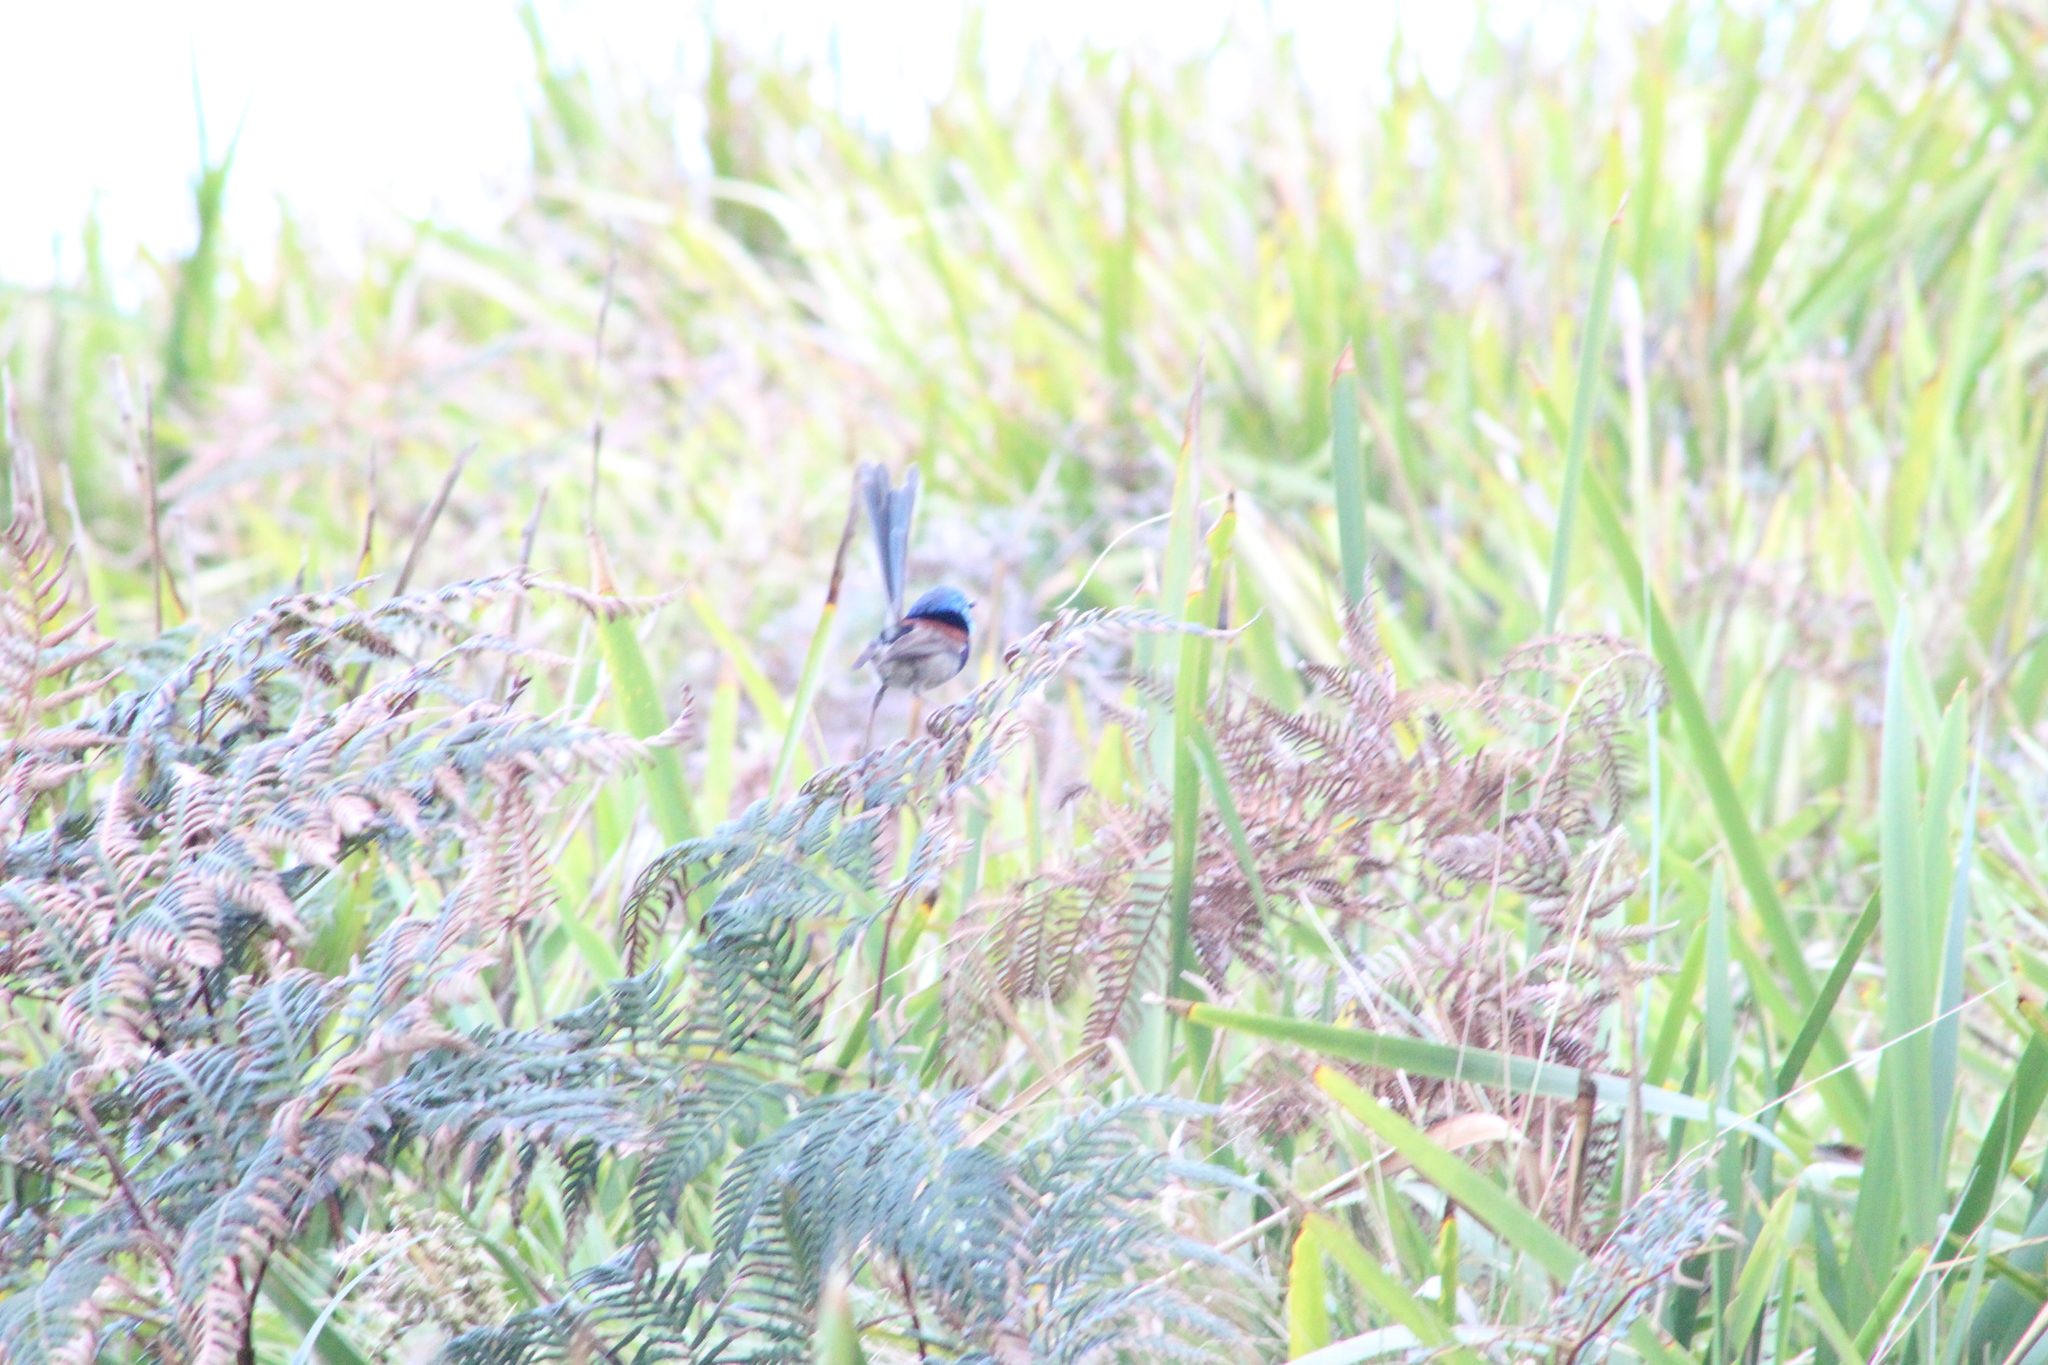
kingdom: Animalia
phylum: Chordata
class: Aves
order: Passeriformes
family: Maluridae
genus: Malurus
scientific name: Malurus lamberti
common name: Variegated fairywren
